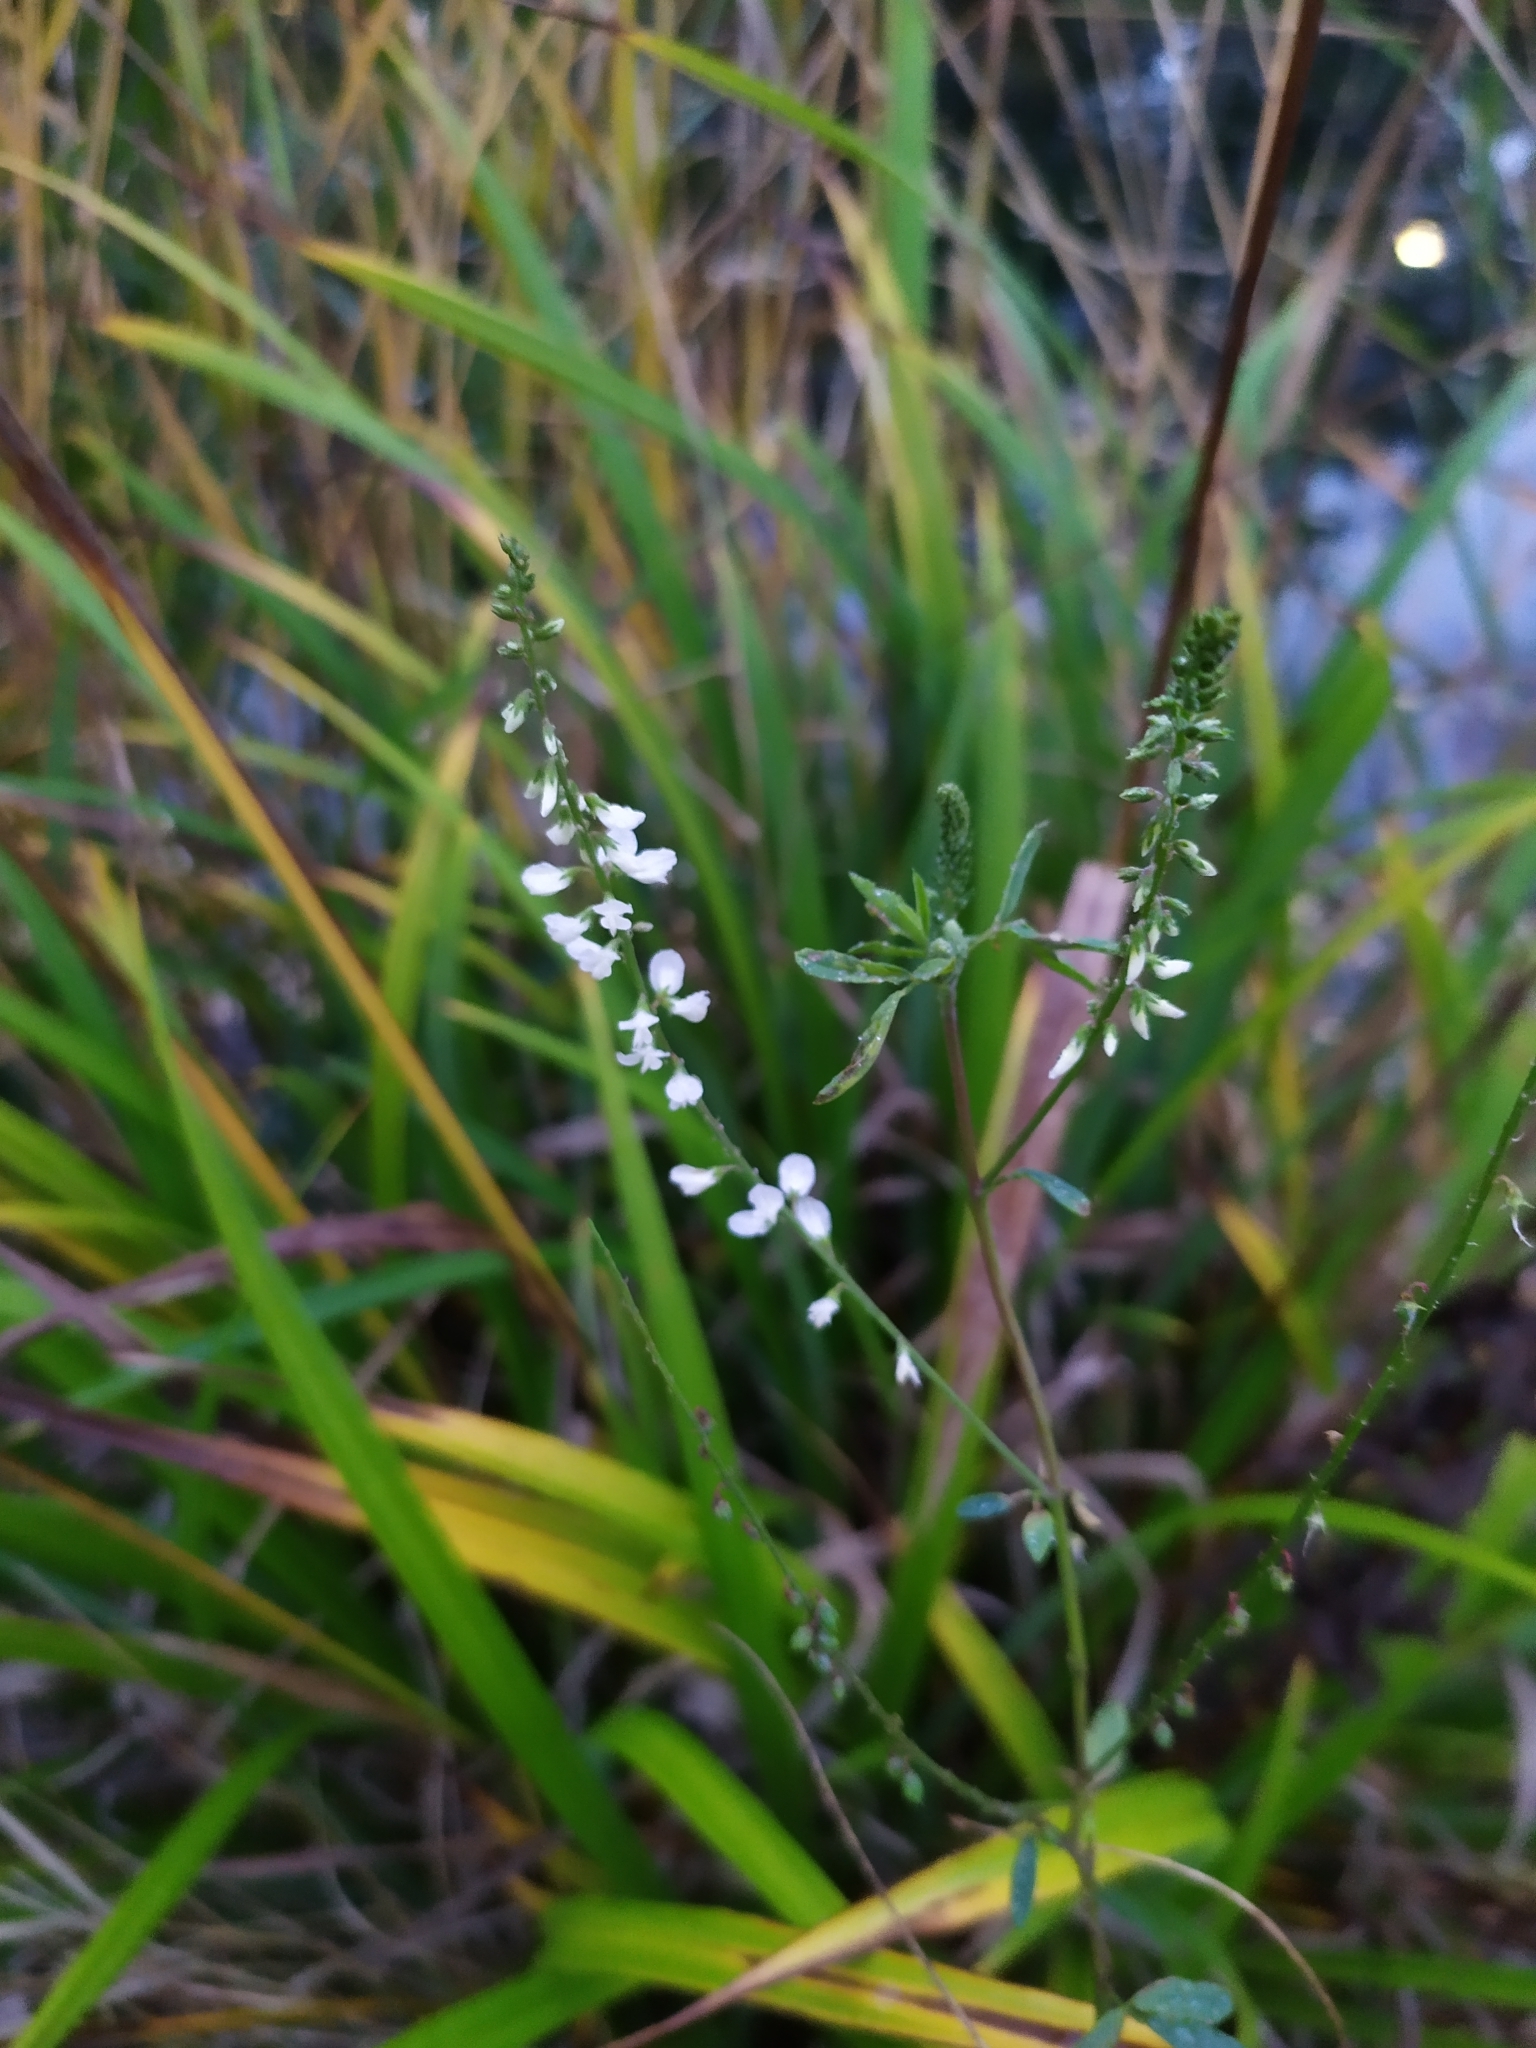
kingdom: Plantae
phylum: Tracheophyta
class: Magnoliopsida
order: Fabales
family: Fabaceae
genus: Melilotus
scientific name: Melilotus albus
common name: White melilot
